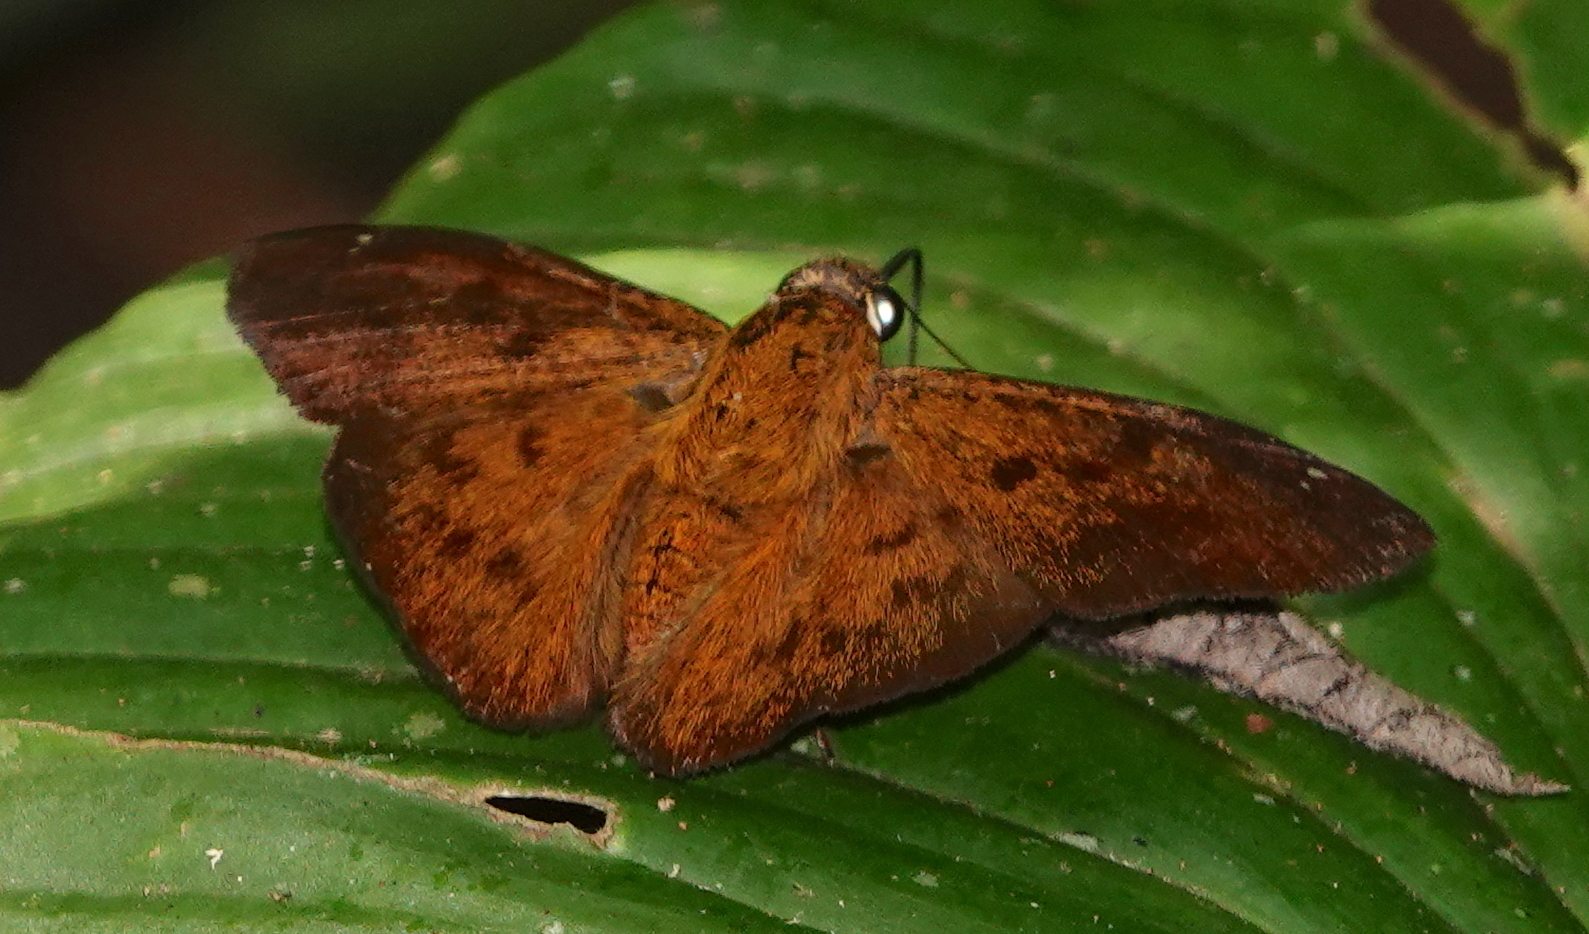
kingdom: Animalia
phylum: Arthropoda
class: Insecta
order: Lepidoptera
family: Hesperiidae
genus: Telemiades
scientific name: Telemiades choricus
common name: Mexican telemiades
